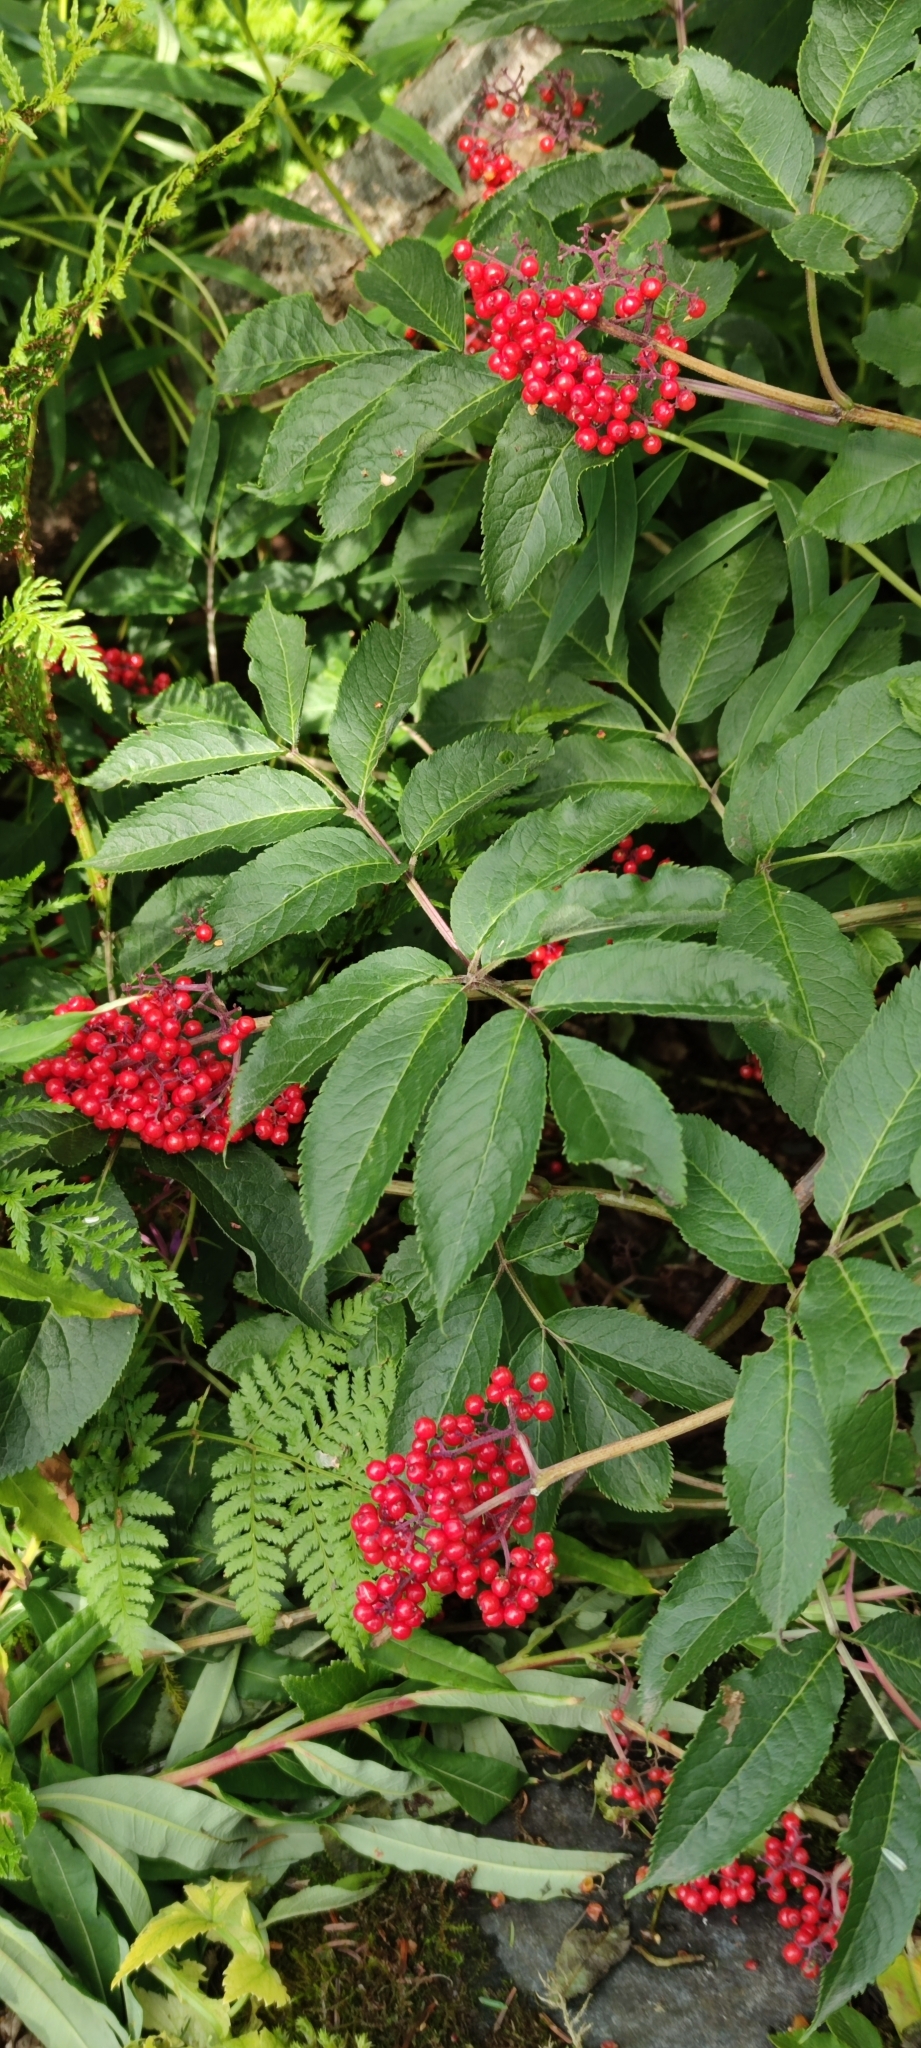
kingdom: Plantae
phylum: Tracheophyta
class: Magnoliopsida
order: Dipsacales
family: Viburnaceae
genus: Sambucus
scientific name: Sambucus racemosa
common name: Red-berried elder
